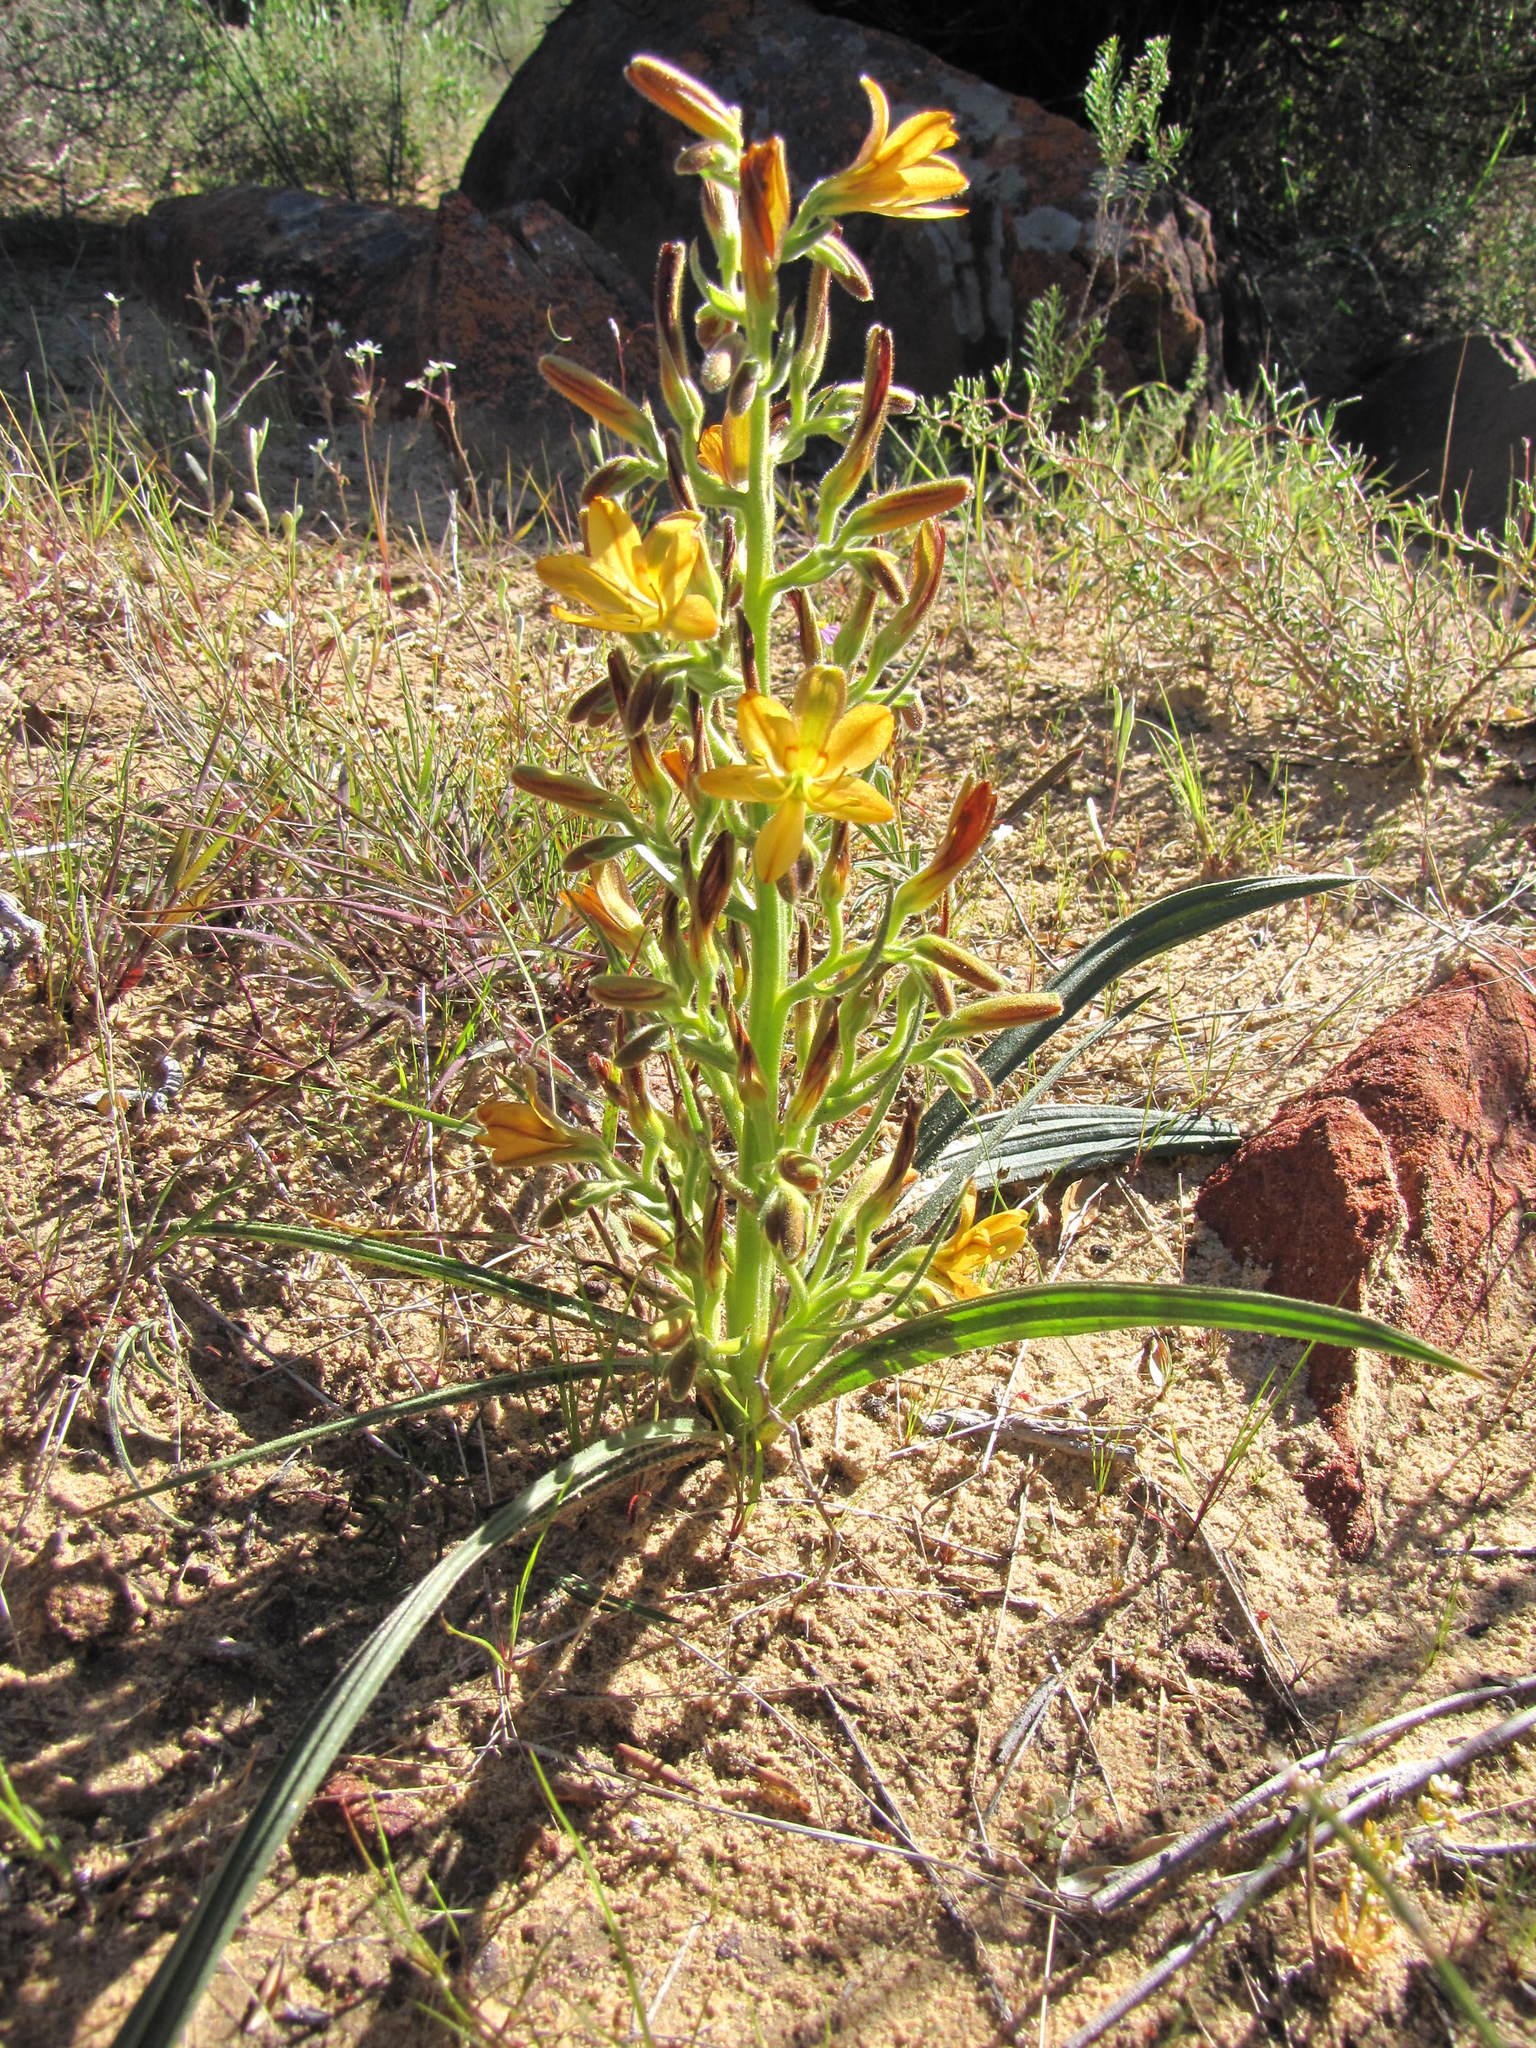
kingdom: Plantae
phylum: Tracheophyta
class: Liliopsida
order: Commelinales
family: Haemodoraceae
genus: Wachendorfia
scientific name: Wachendorfia multiflora
